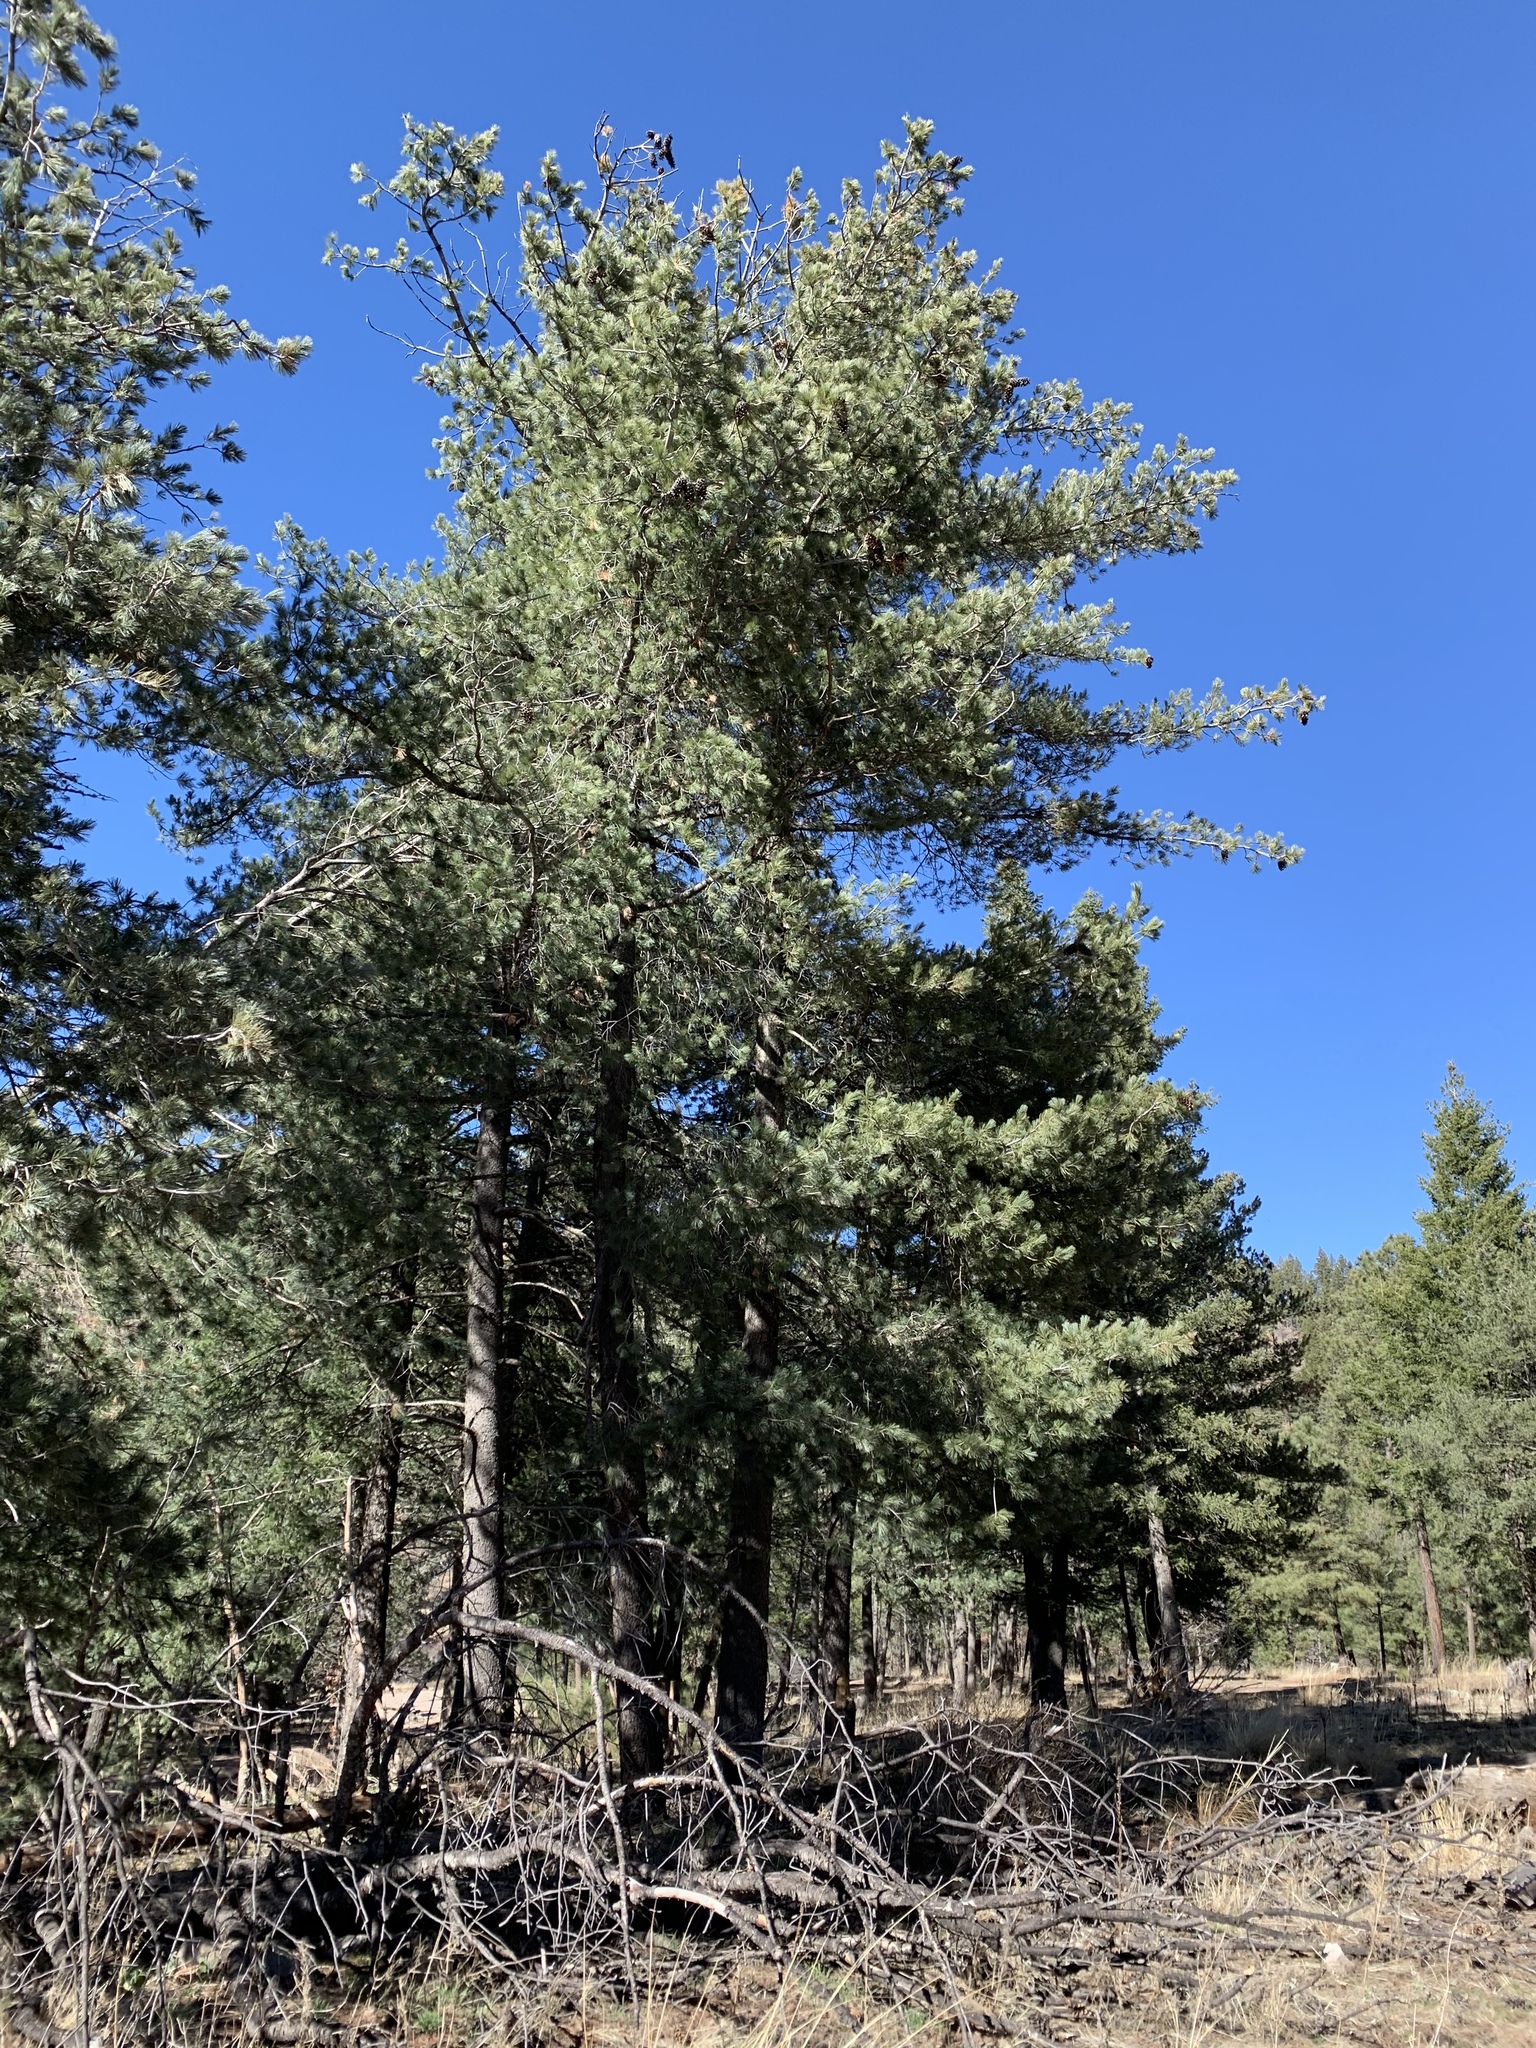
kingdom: Plantae
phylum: Tracheophyta
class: Pinopsida
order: Pinales
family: Pinaceae
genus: Pinus
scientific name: Pinus strobiformis
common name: Southwestern white pine
